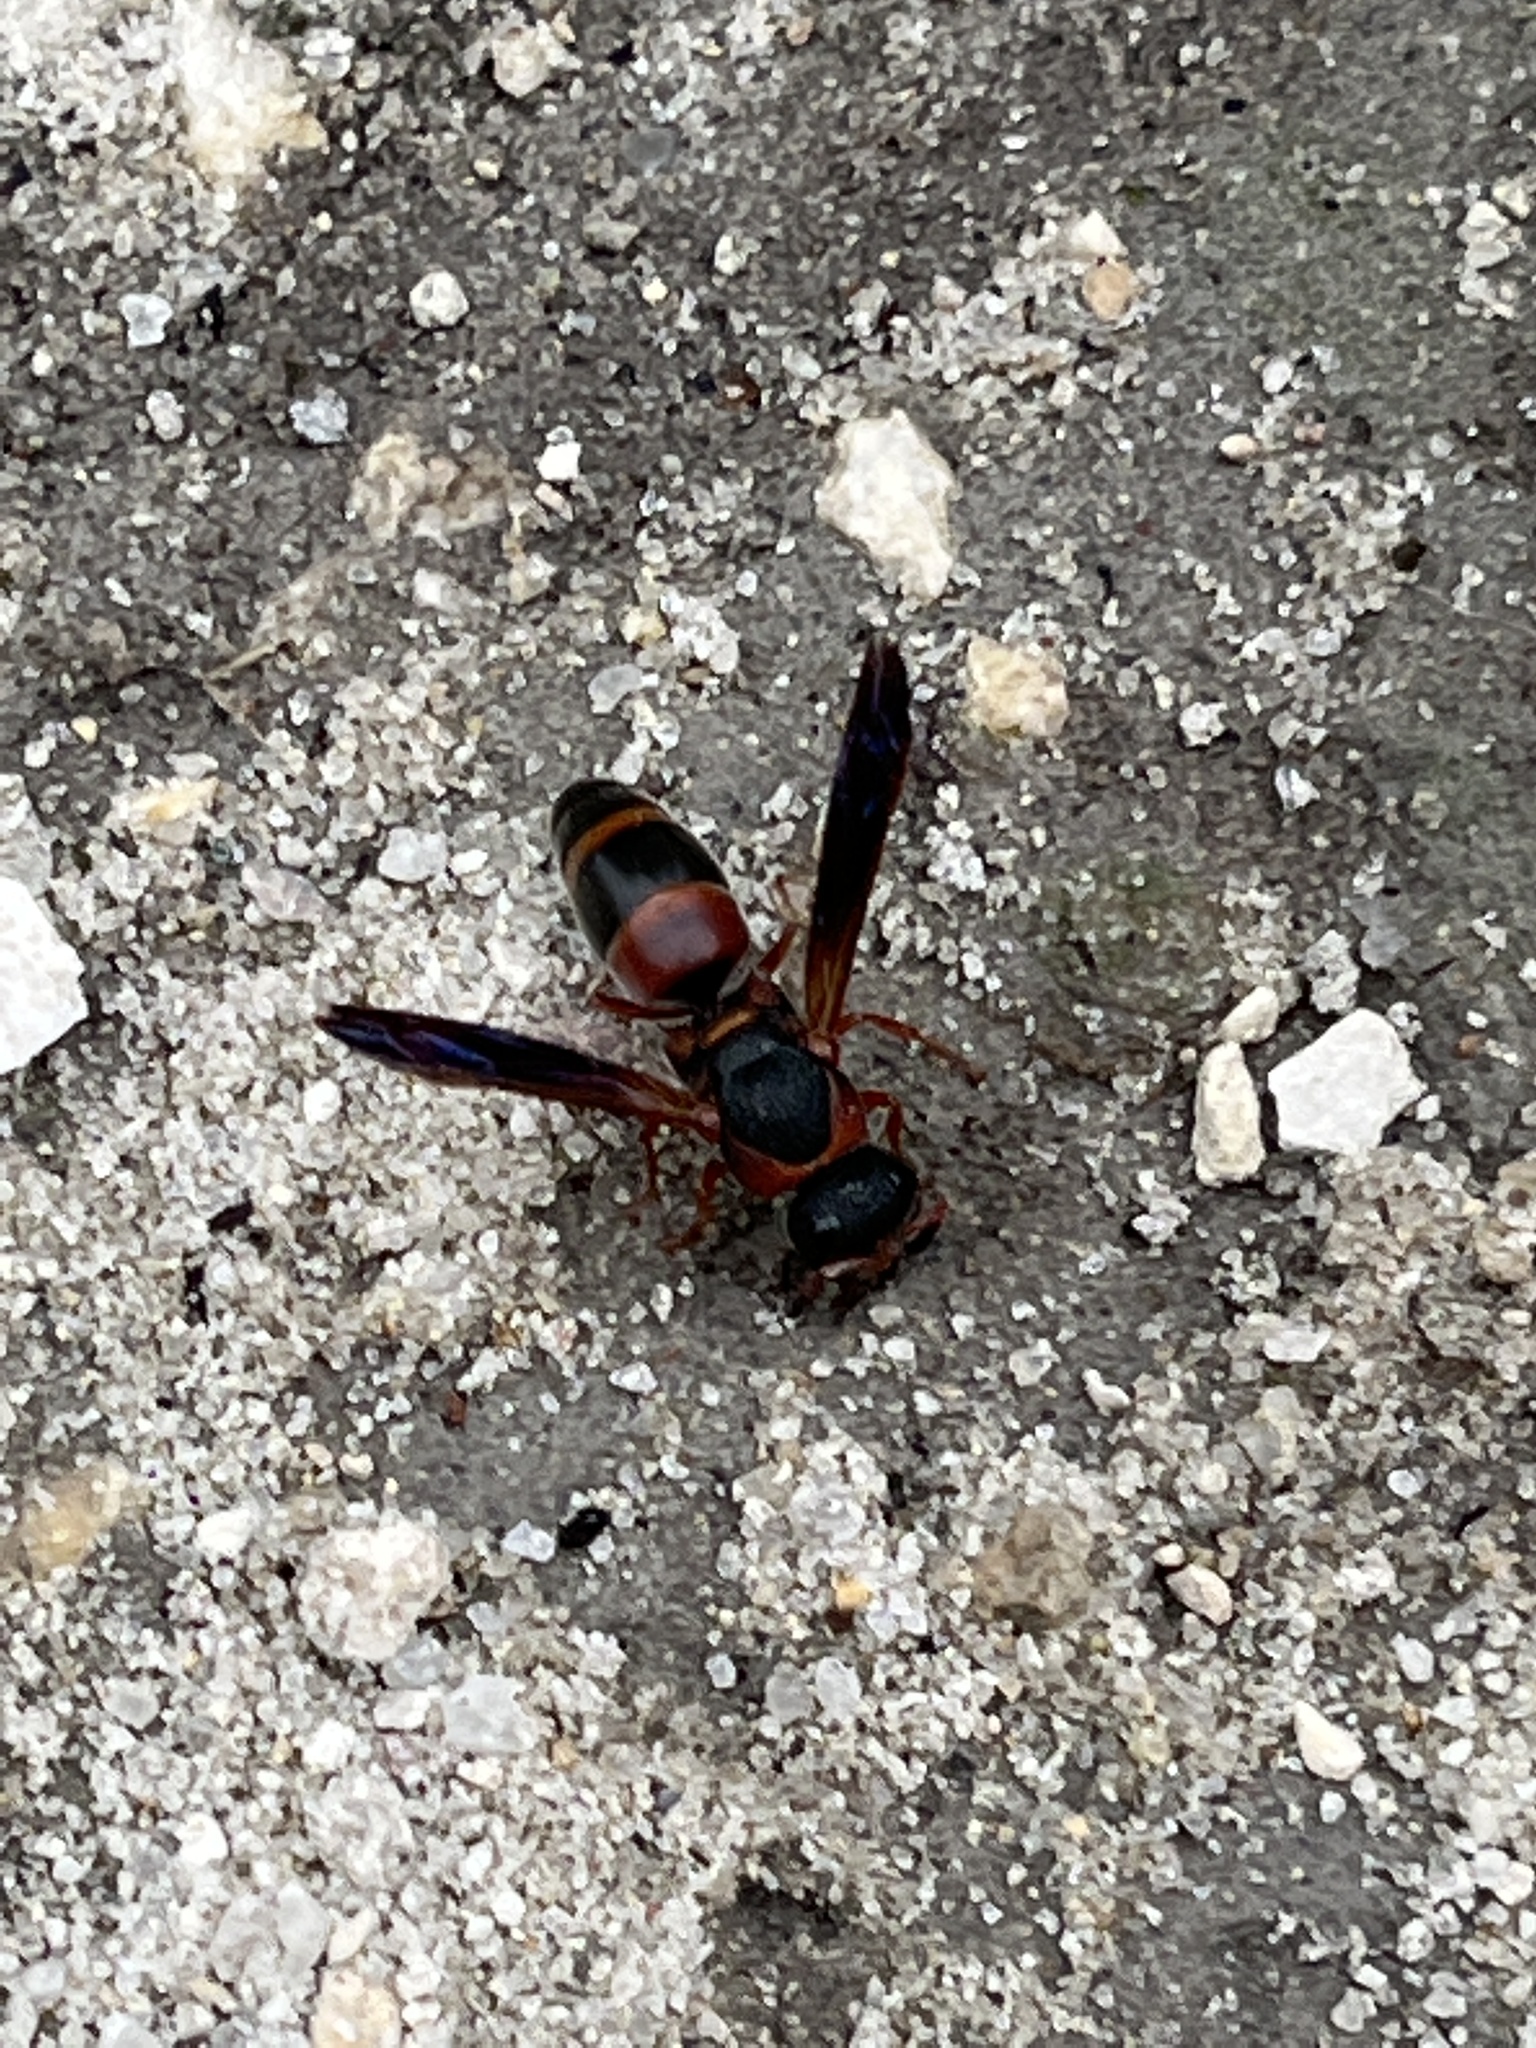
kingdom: Animalia
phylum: Arthropoda
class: Insecta
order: Hymenoptera
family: Eumenidae
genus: Pachodynerus
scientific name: Pachodynerus erynnis
